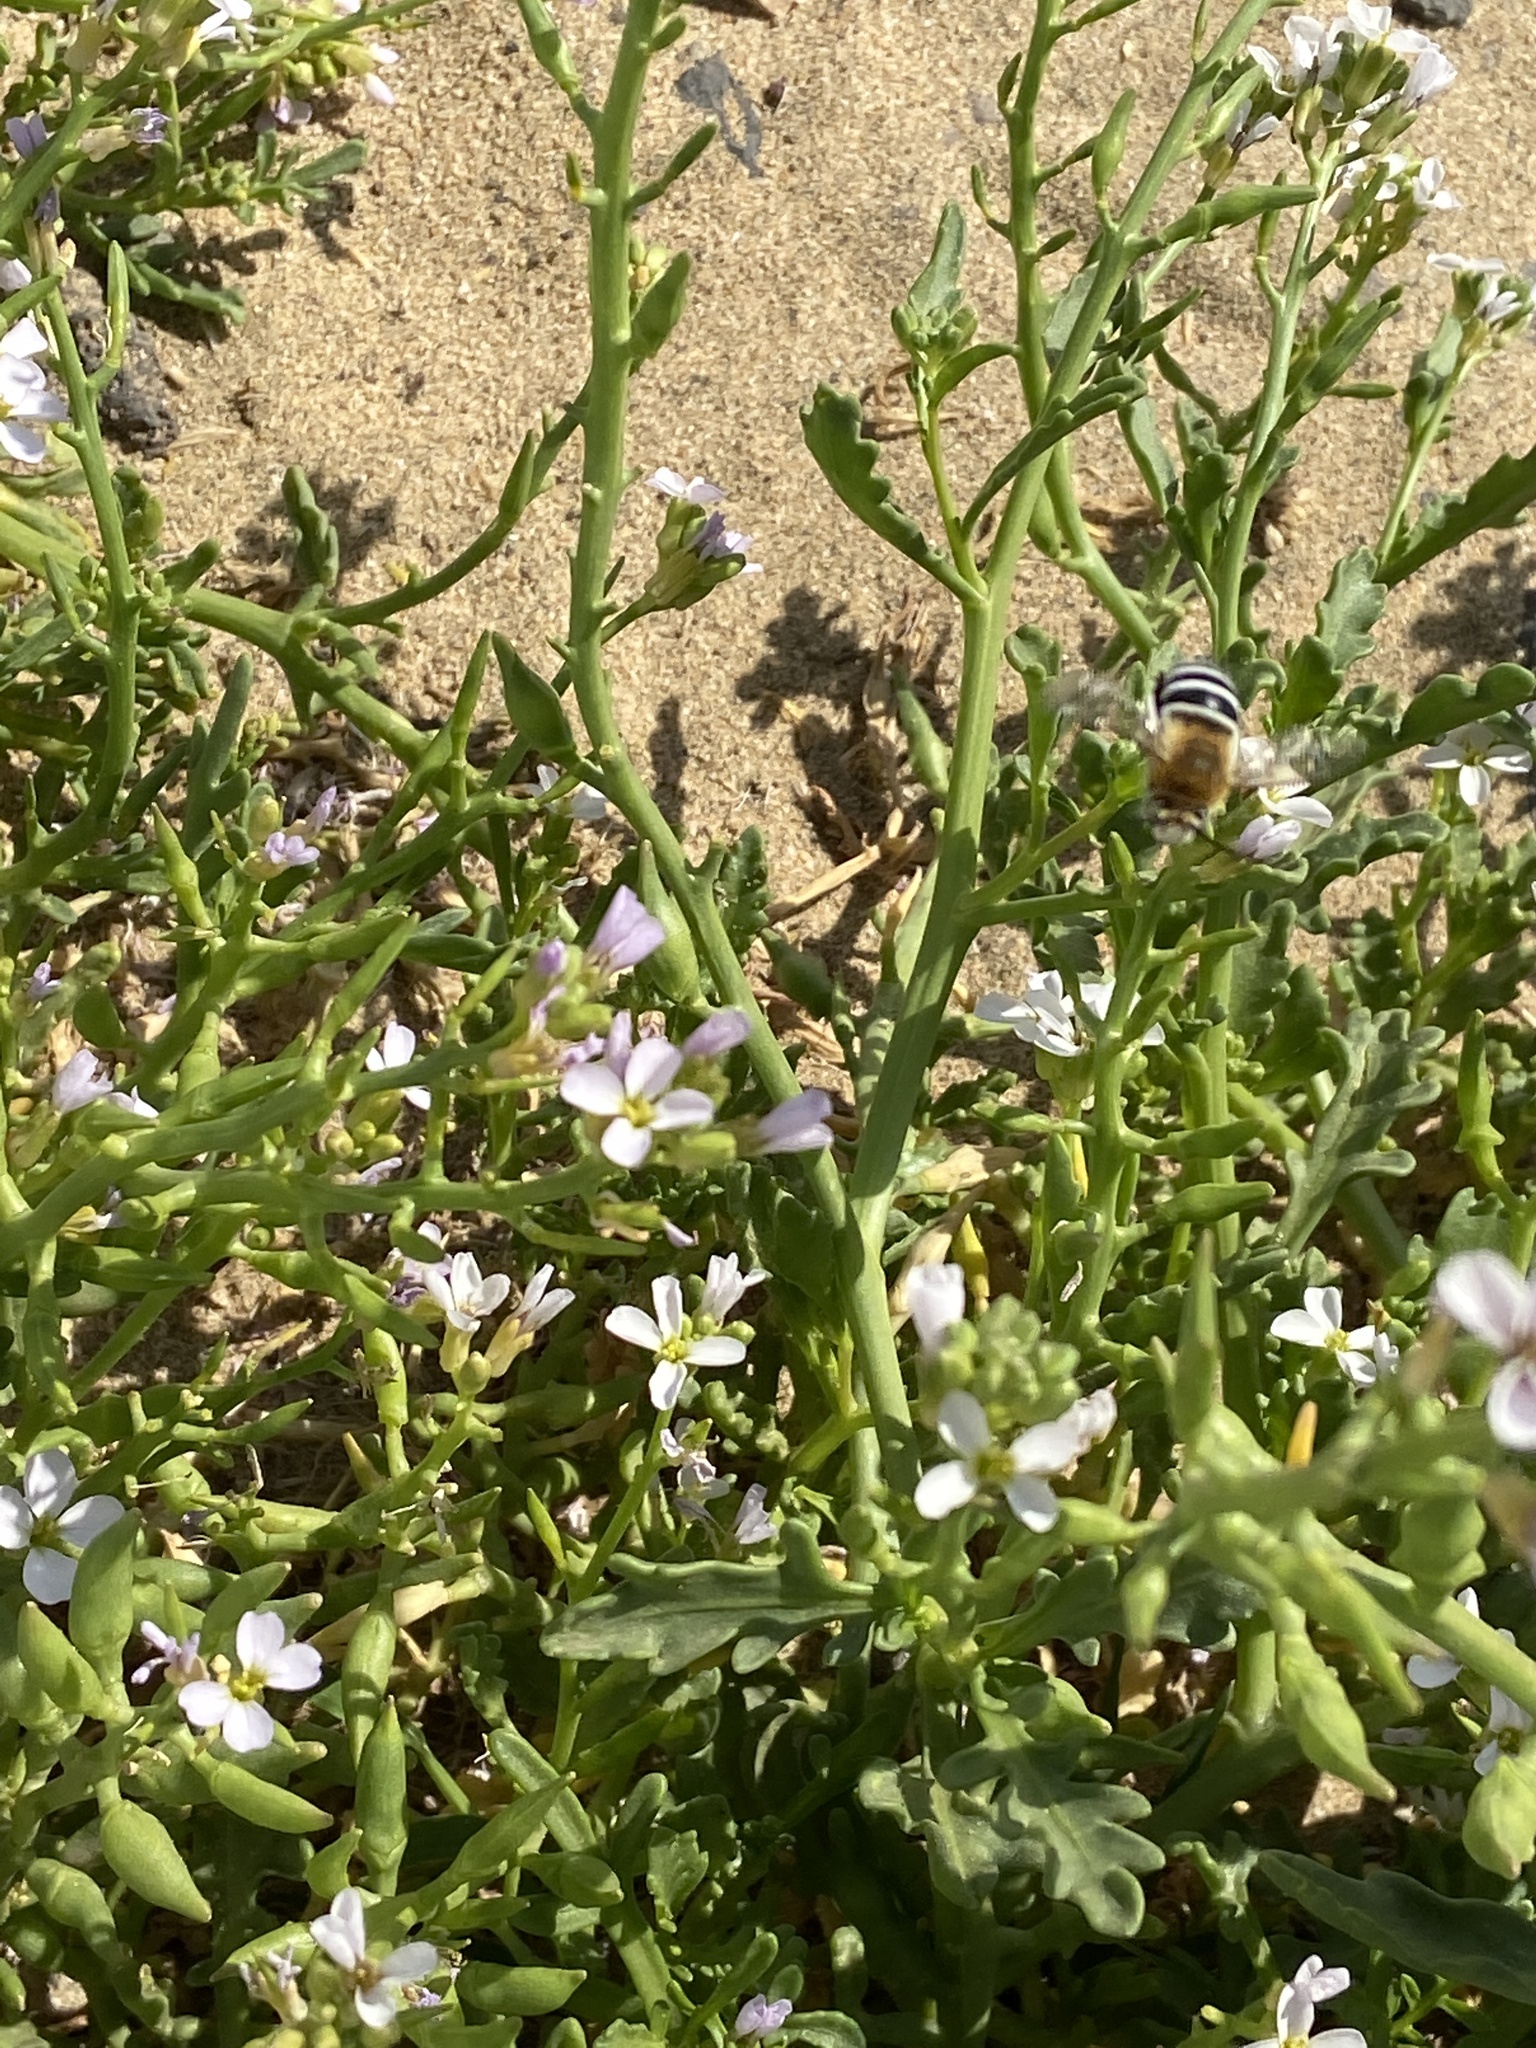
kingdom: Animalia
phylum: Arthropoda
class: Insecta
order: Hymenoptera
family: Apidae
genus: Amegilla
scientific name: Amegilla quadrifasciata
